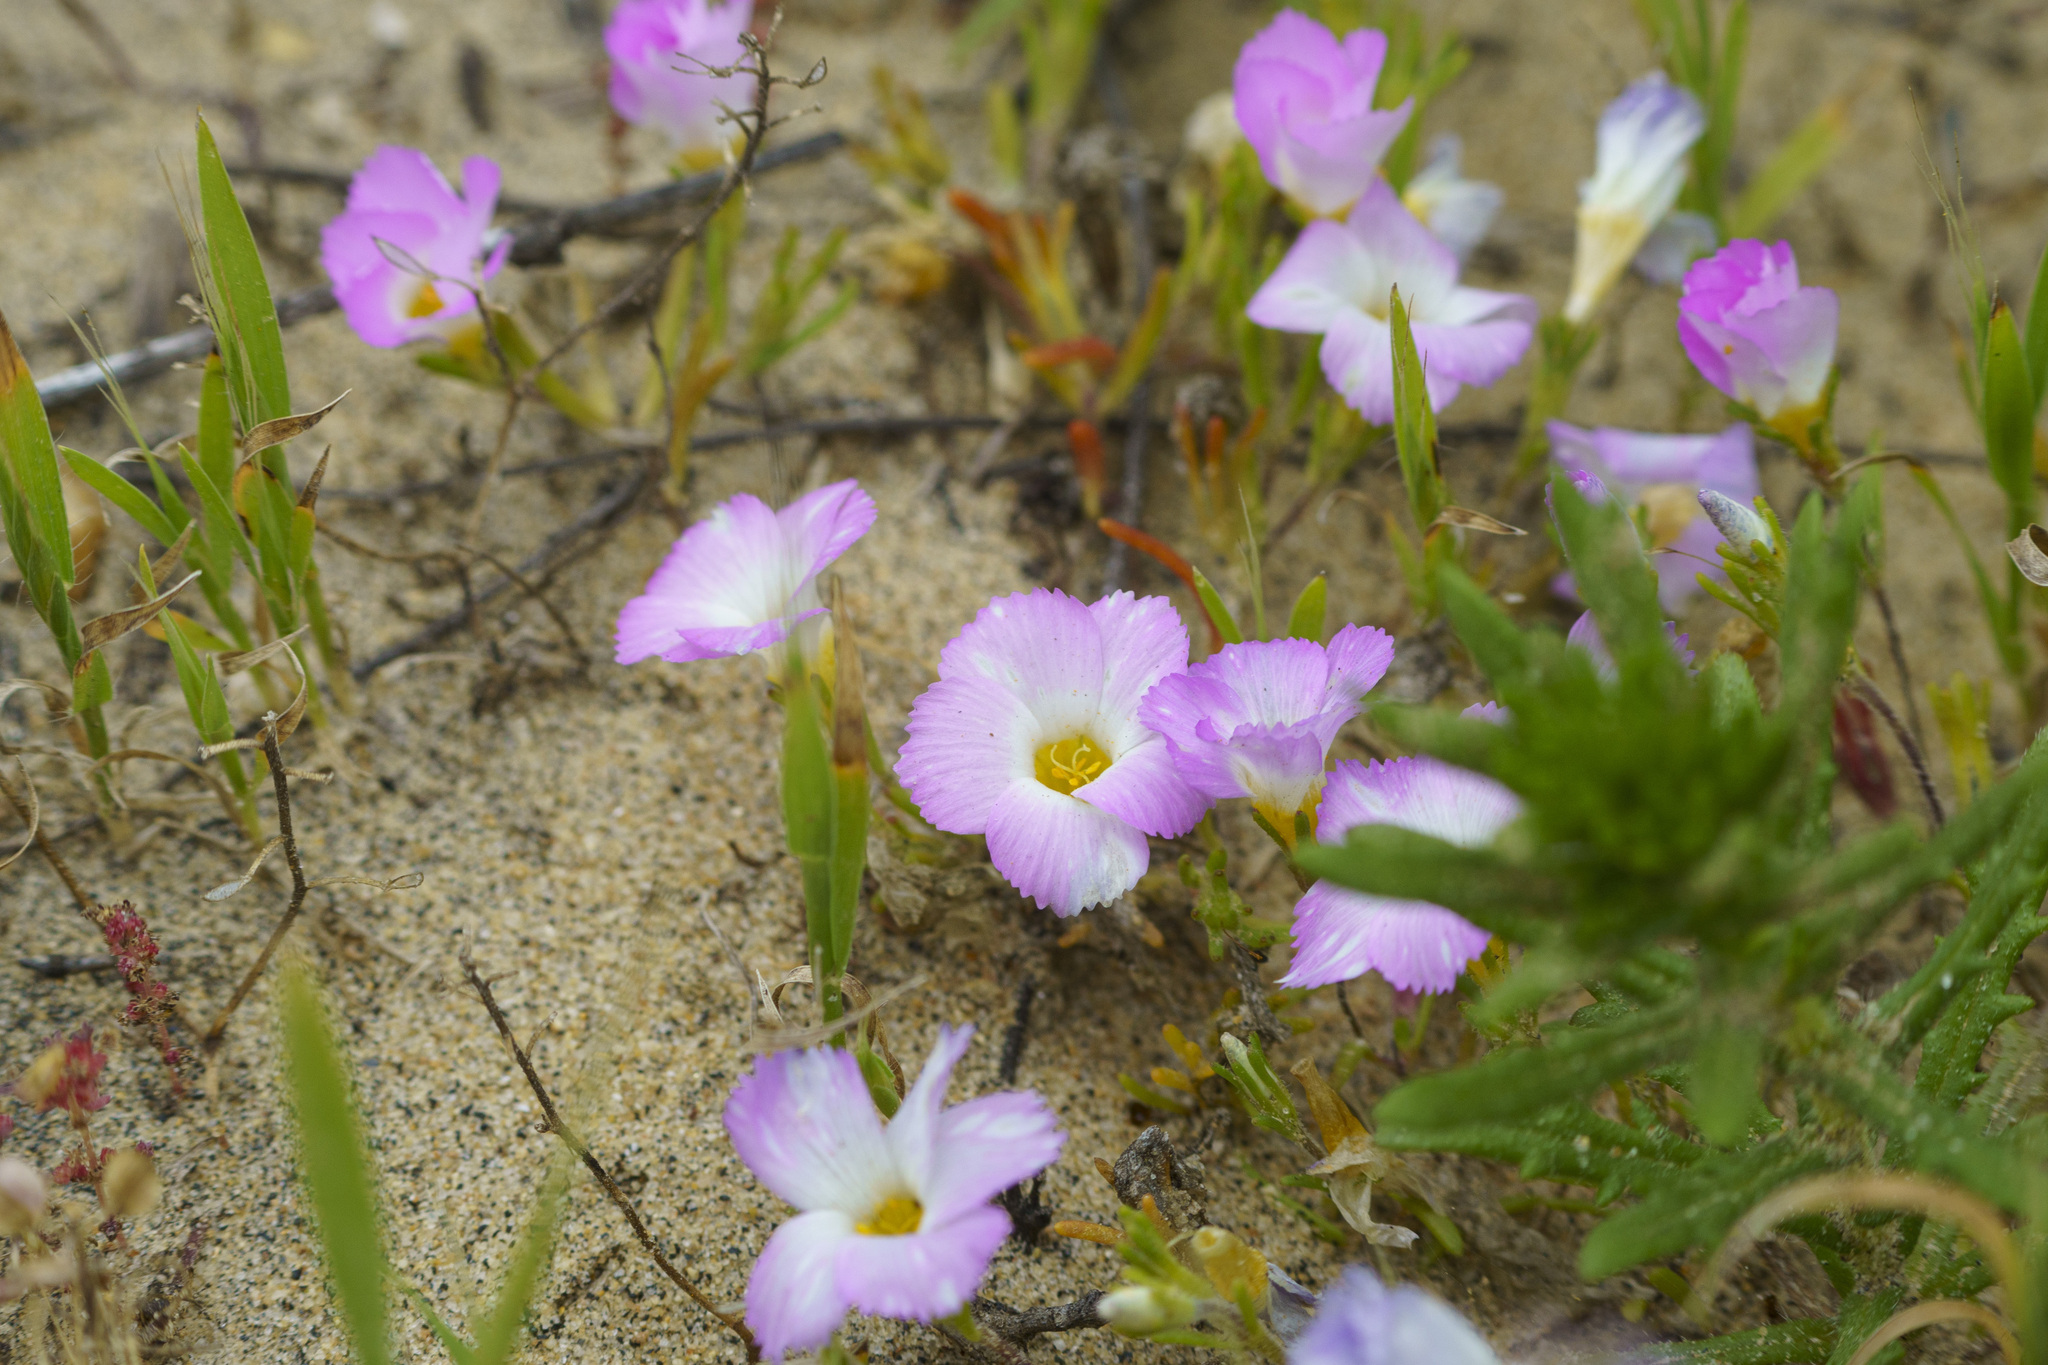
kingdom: Plantae
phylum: Tracheophyta
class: Magnoliopsida
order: Ericales
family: Polemoniaceae
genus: Linanthus
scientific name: Linanthus dianthiflorus
